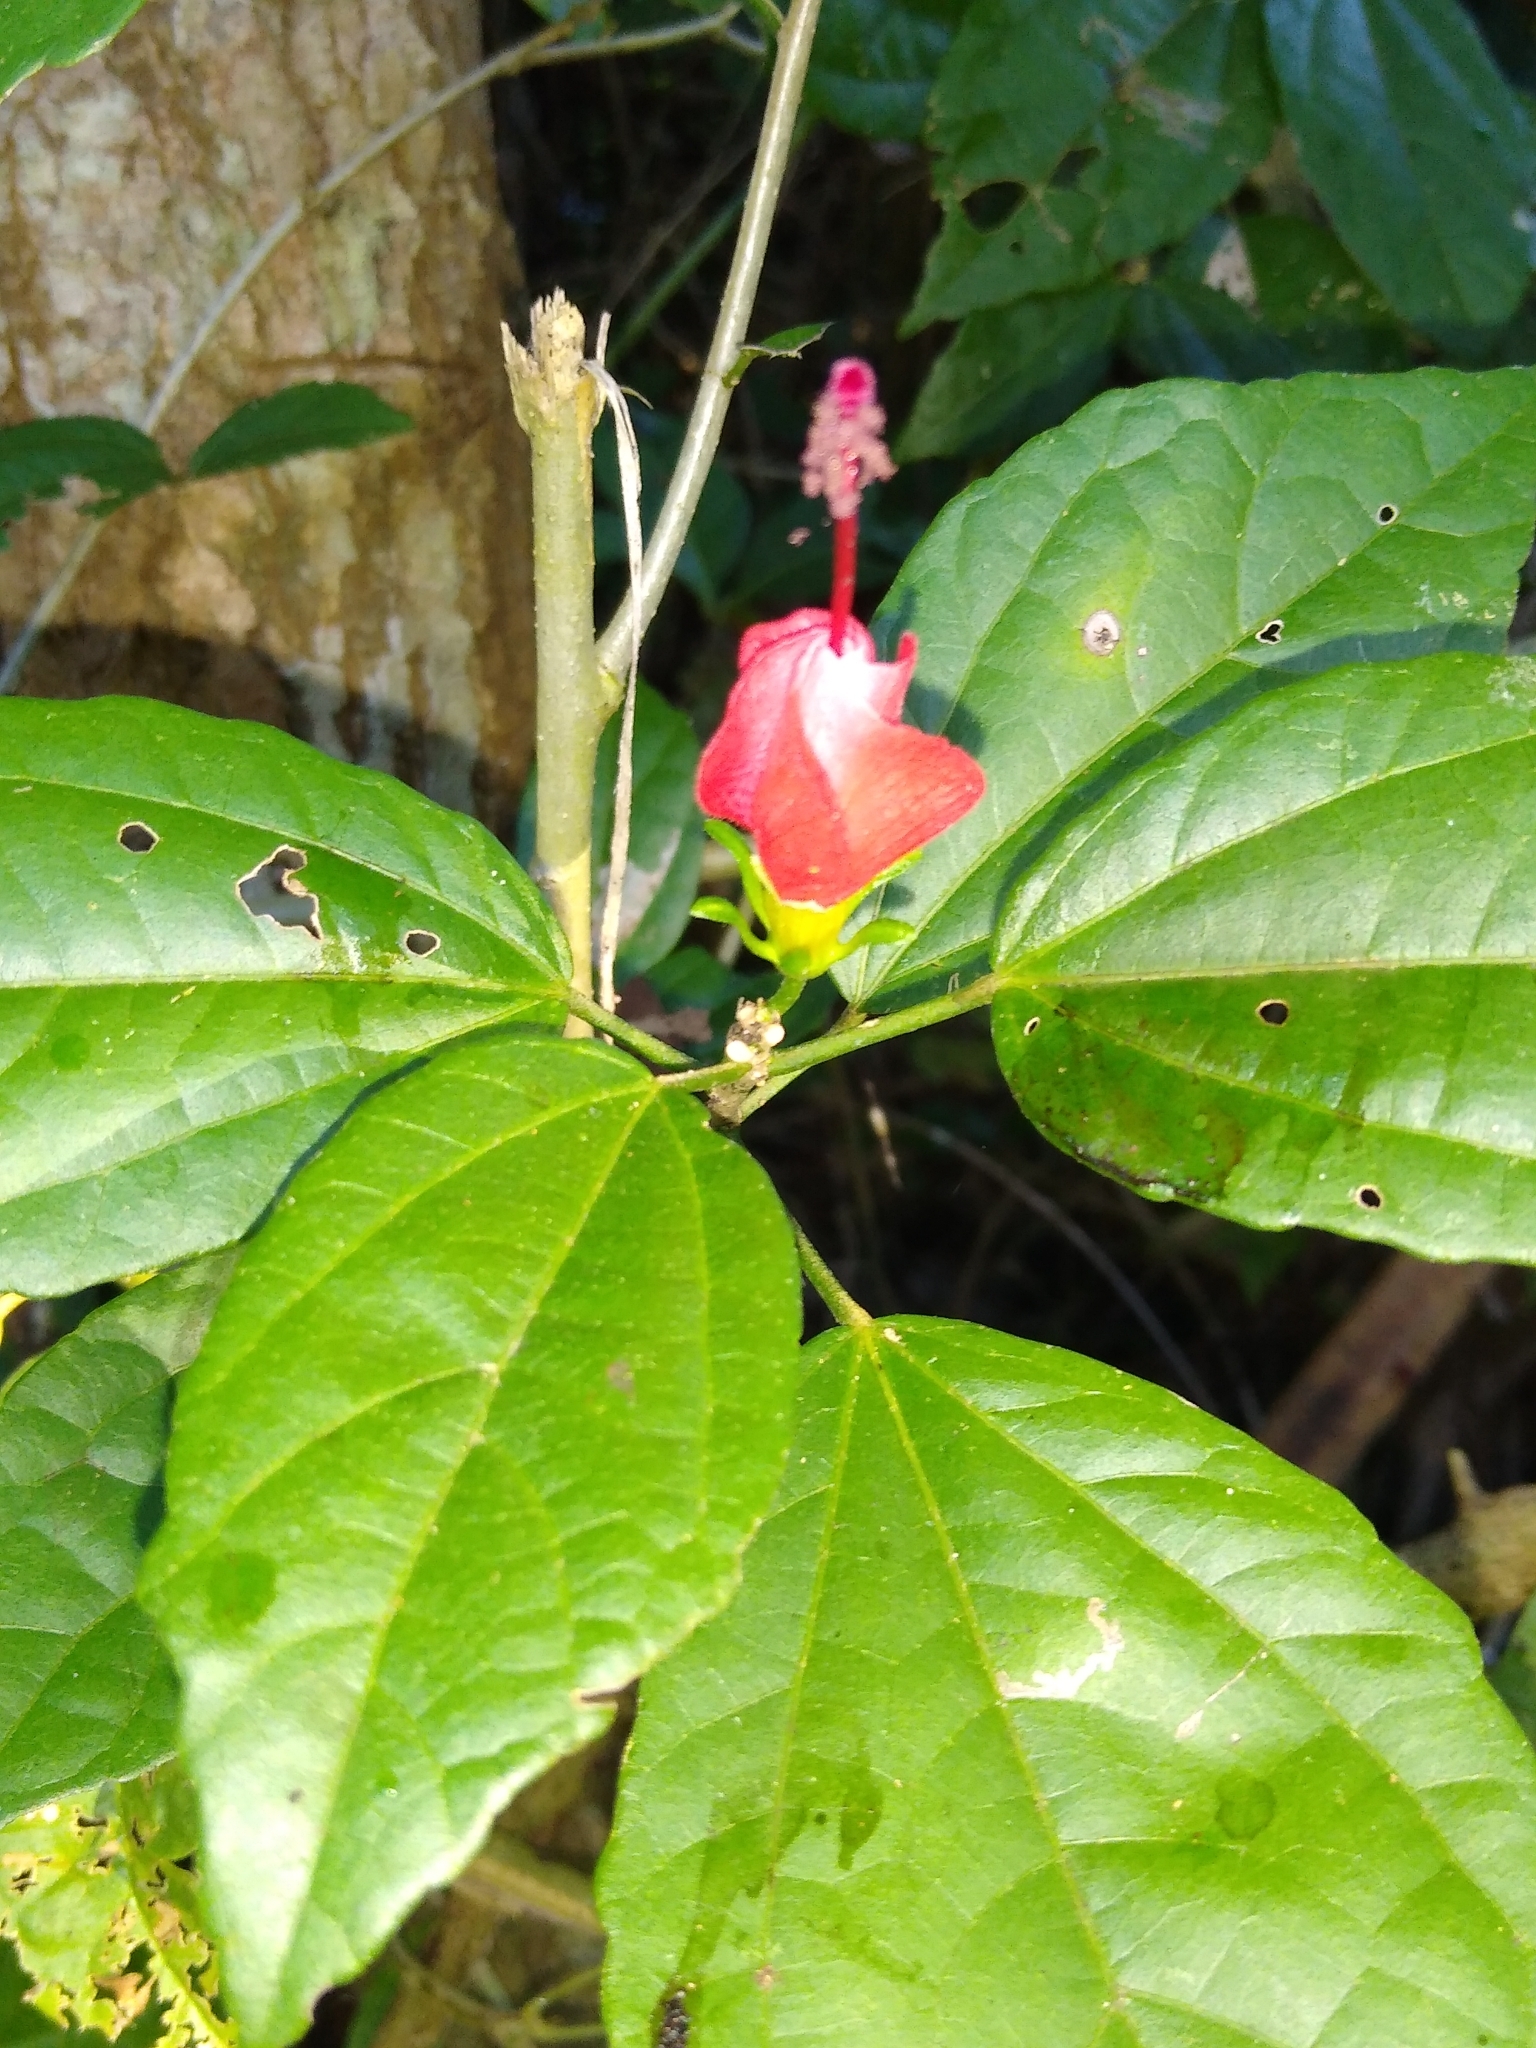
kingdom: Plantae
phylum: Tracheophyta
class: Magnoliopsida
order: Malvales
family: Malvaceae
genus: Malvaviscus
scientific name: Malvaviscus arboreus
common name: Wax mallow
